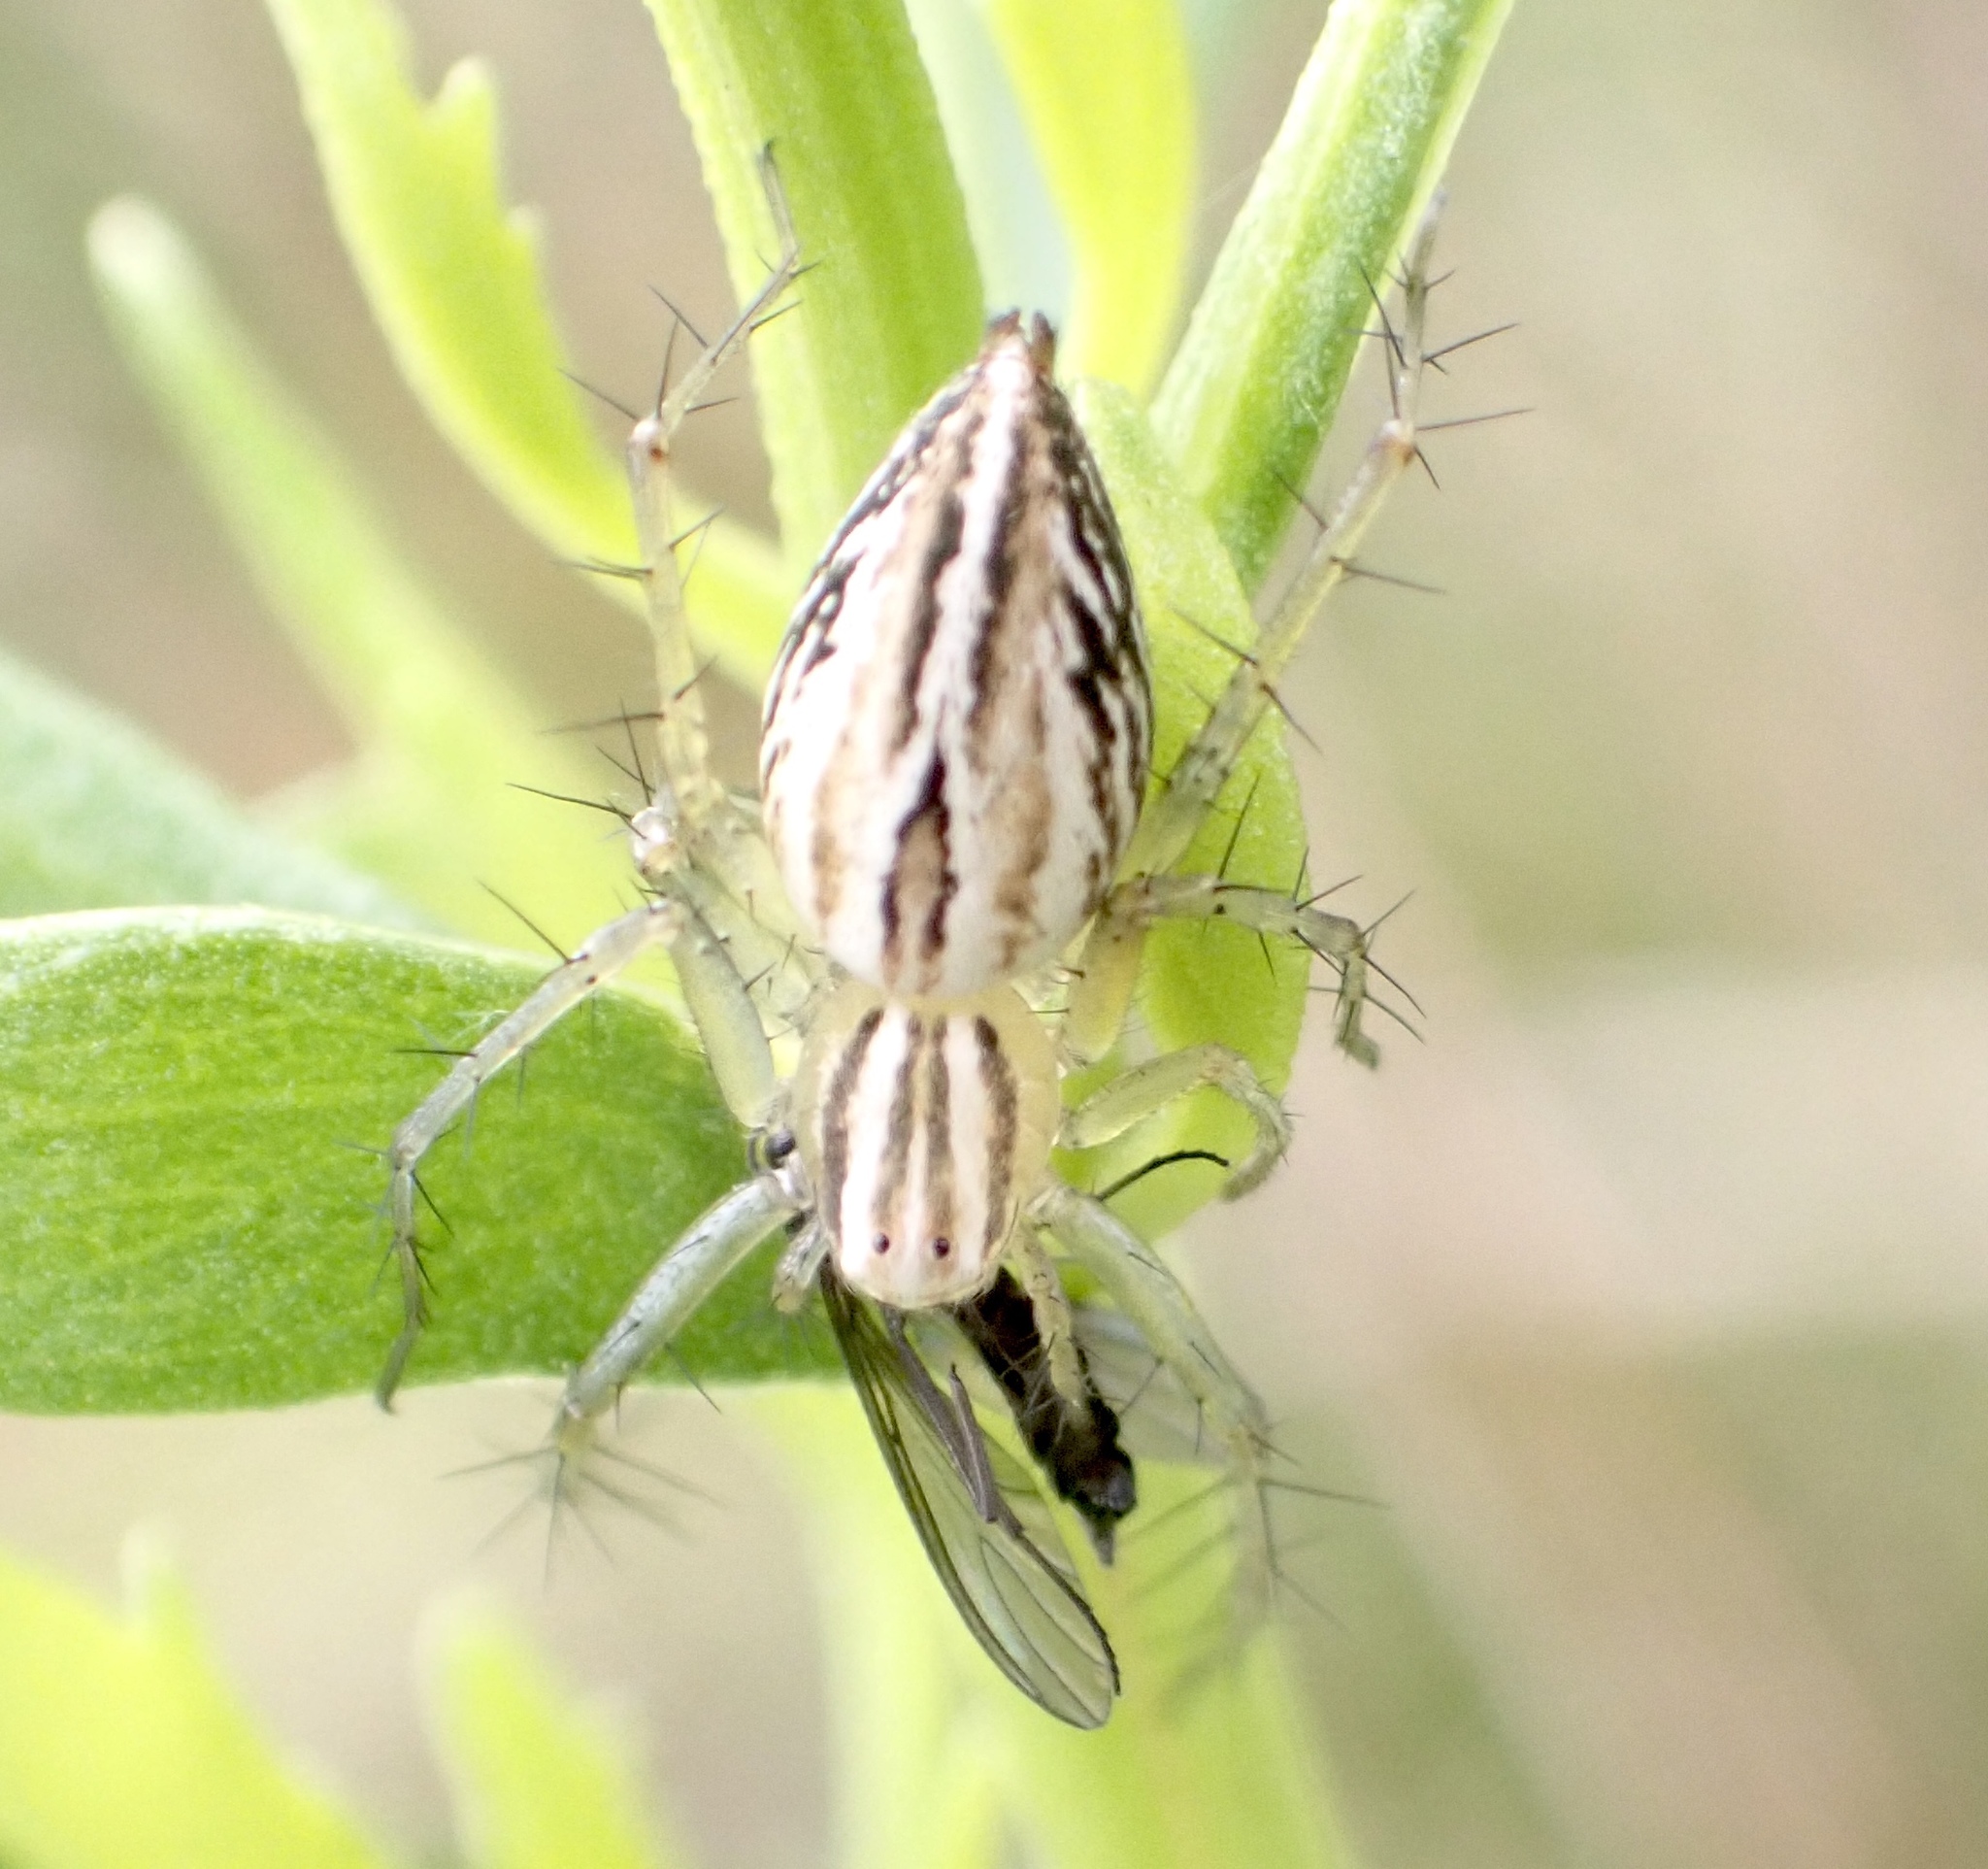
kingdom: Animalia
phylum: Arthropoda
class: Arachnida
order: Araneae
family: Oxyopidae
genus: Oxyopes
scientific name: Oxyopes salticus
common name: Lynx spiders
